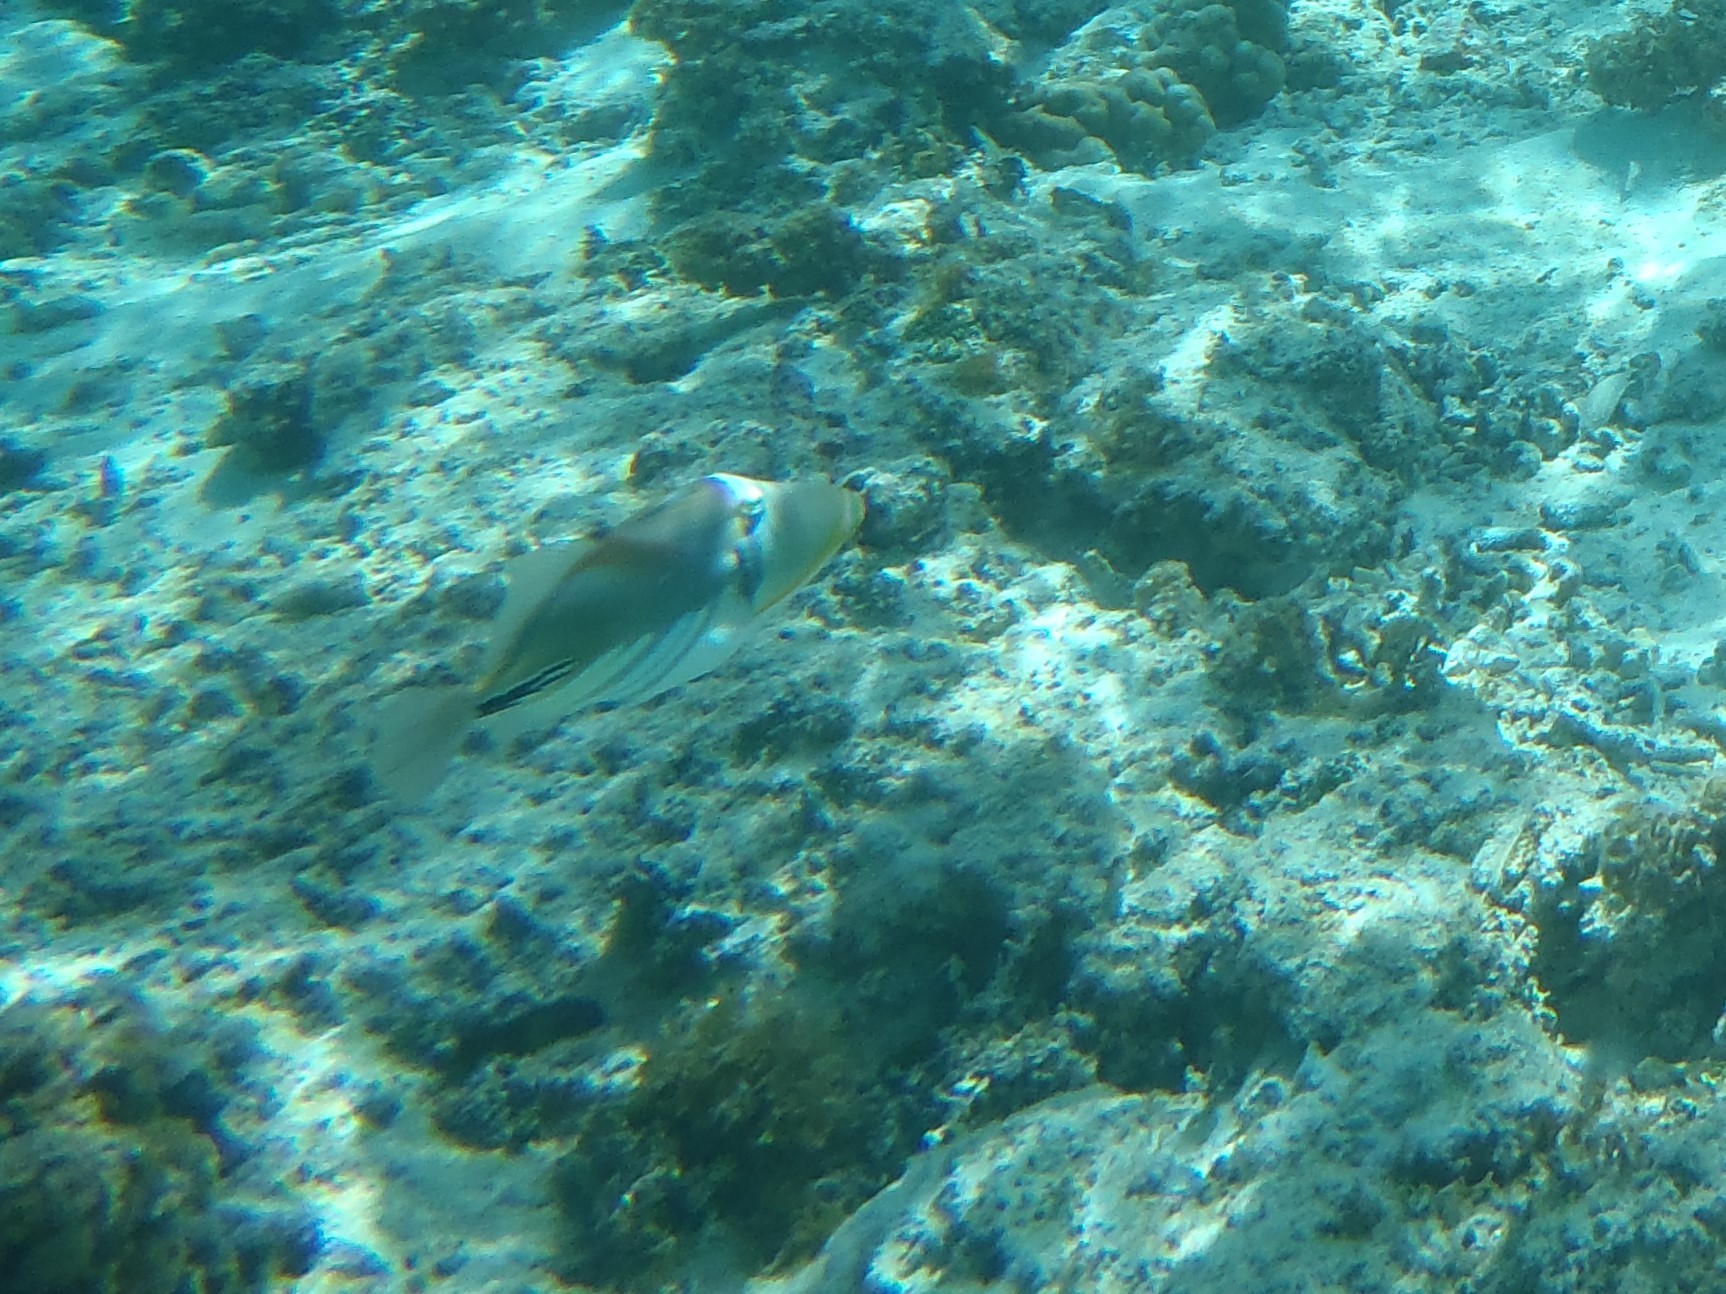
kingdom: Animalia
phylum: Chordata
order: Tetraodontiformes
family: Balistidae
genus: Rhinecanthus
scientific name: Rhinecanthus aculeatus
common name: White-banded triggerfish
